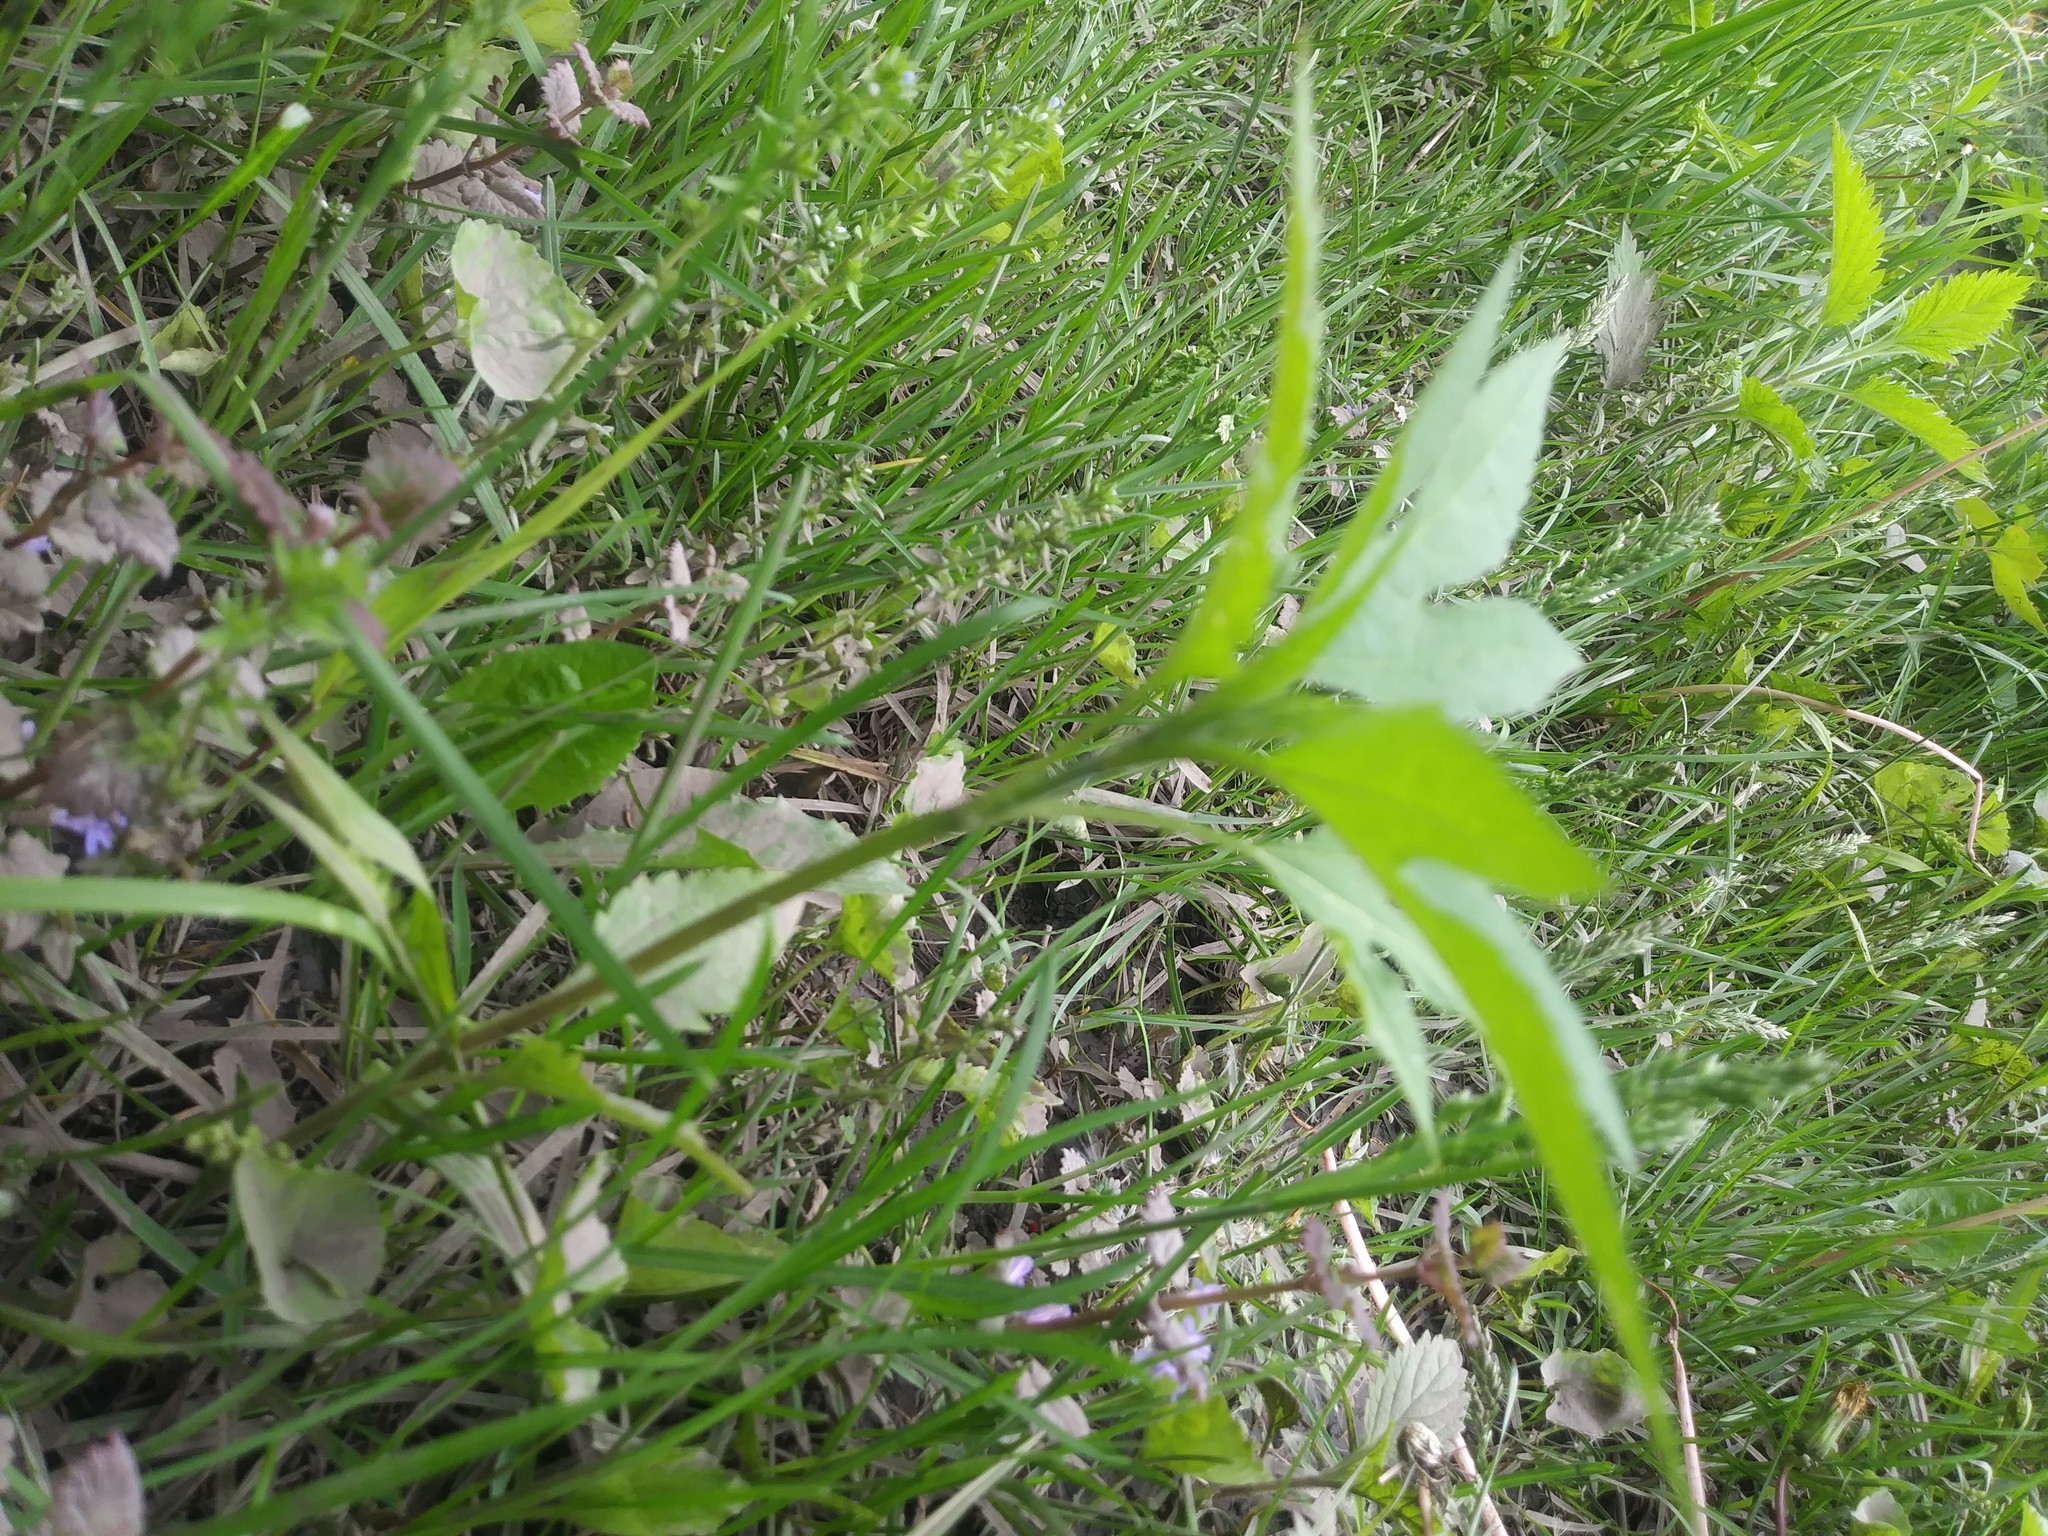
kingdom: Plantae
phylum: Tracheophyta
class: Magnoliopsida
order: Asterales
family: Asteraceae
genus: Ambrosia
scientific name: Ambrosia trifida
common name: Giant ragweed
